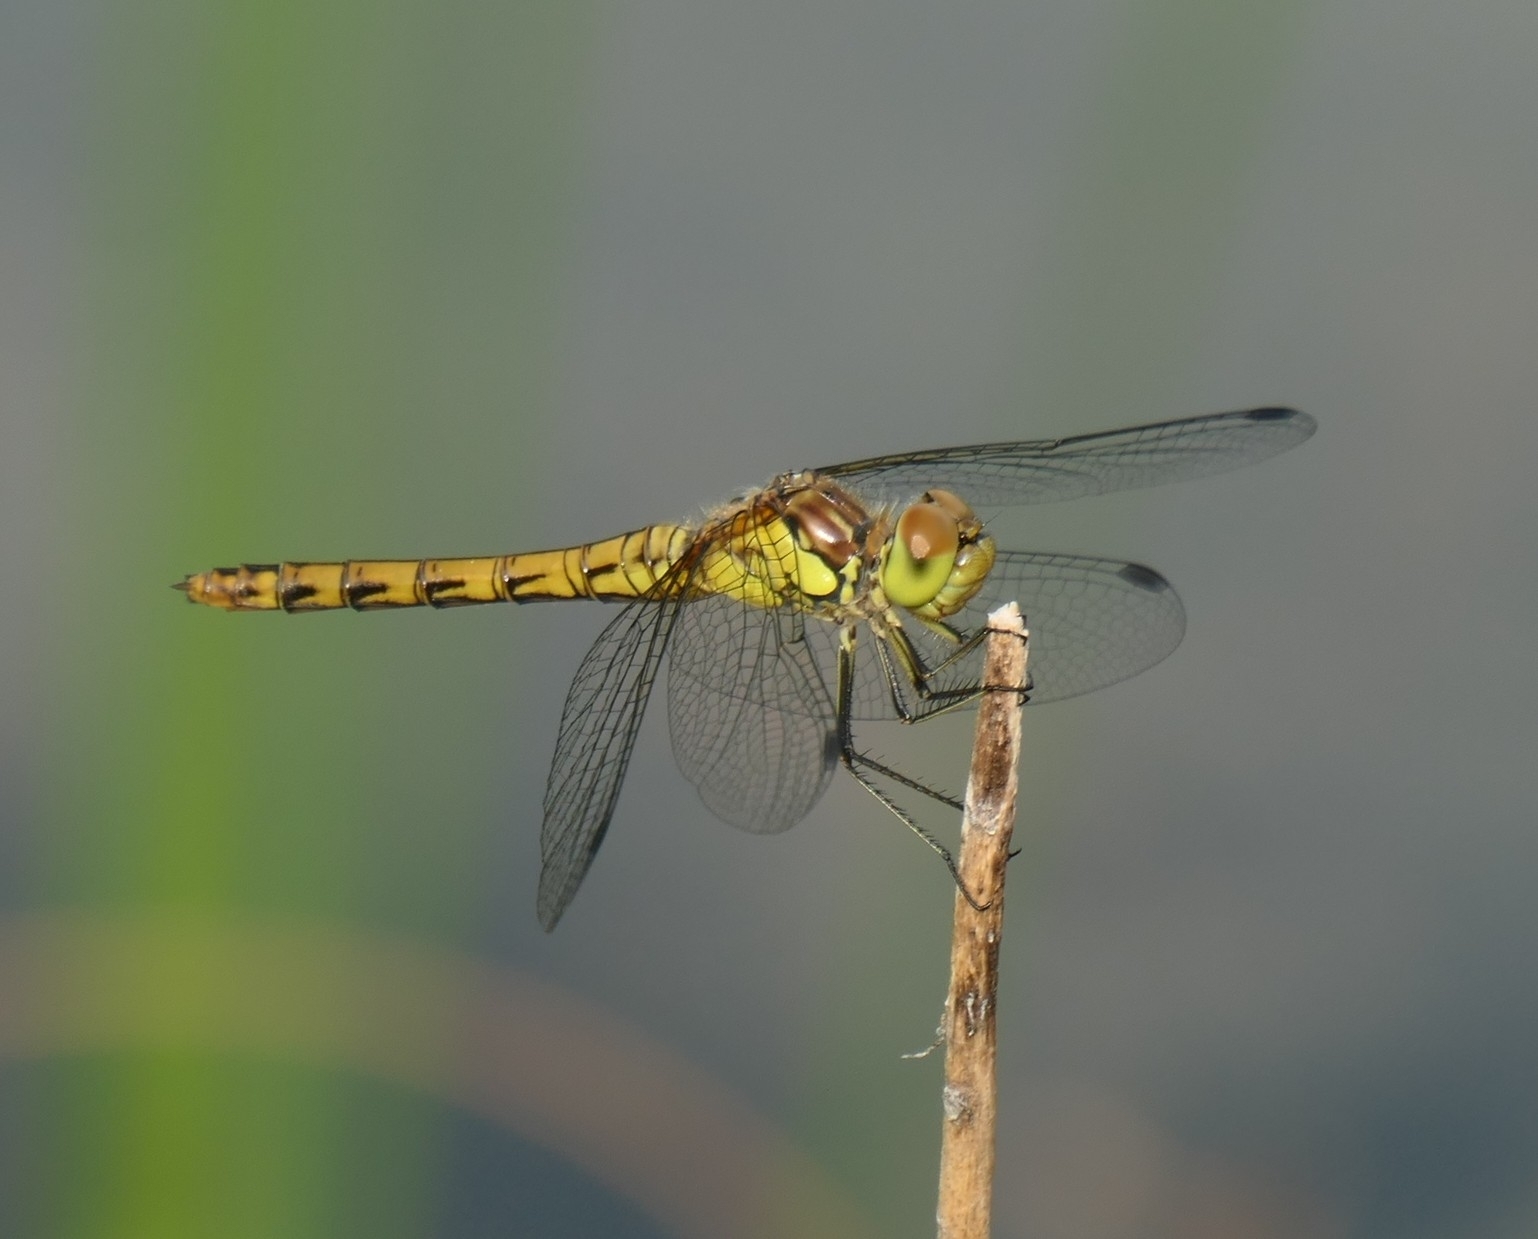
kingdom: Animalia
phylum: Arthropoda
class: Insecta
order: Odonata
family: Libellulidae
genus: Sympetrum
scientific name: Sympetrum striolatum
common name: Common darter
